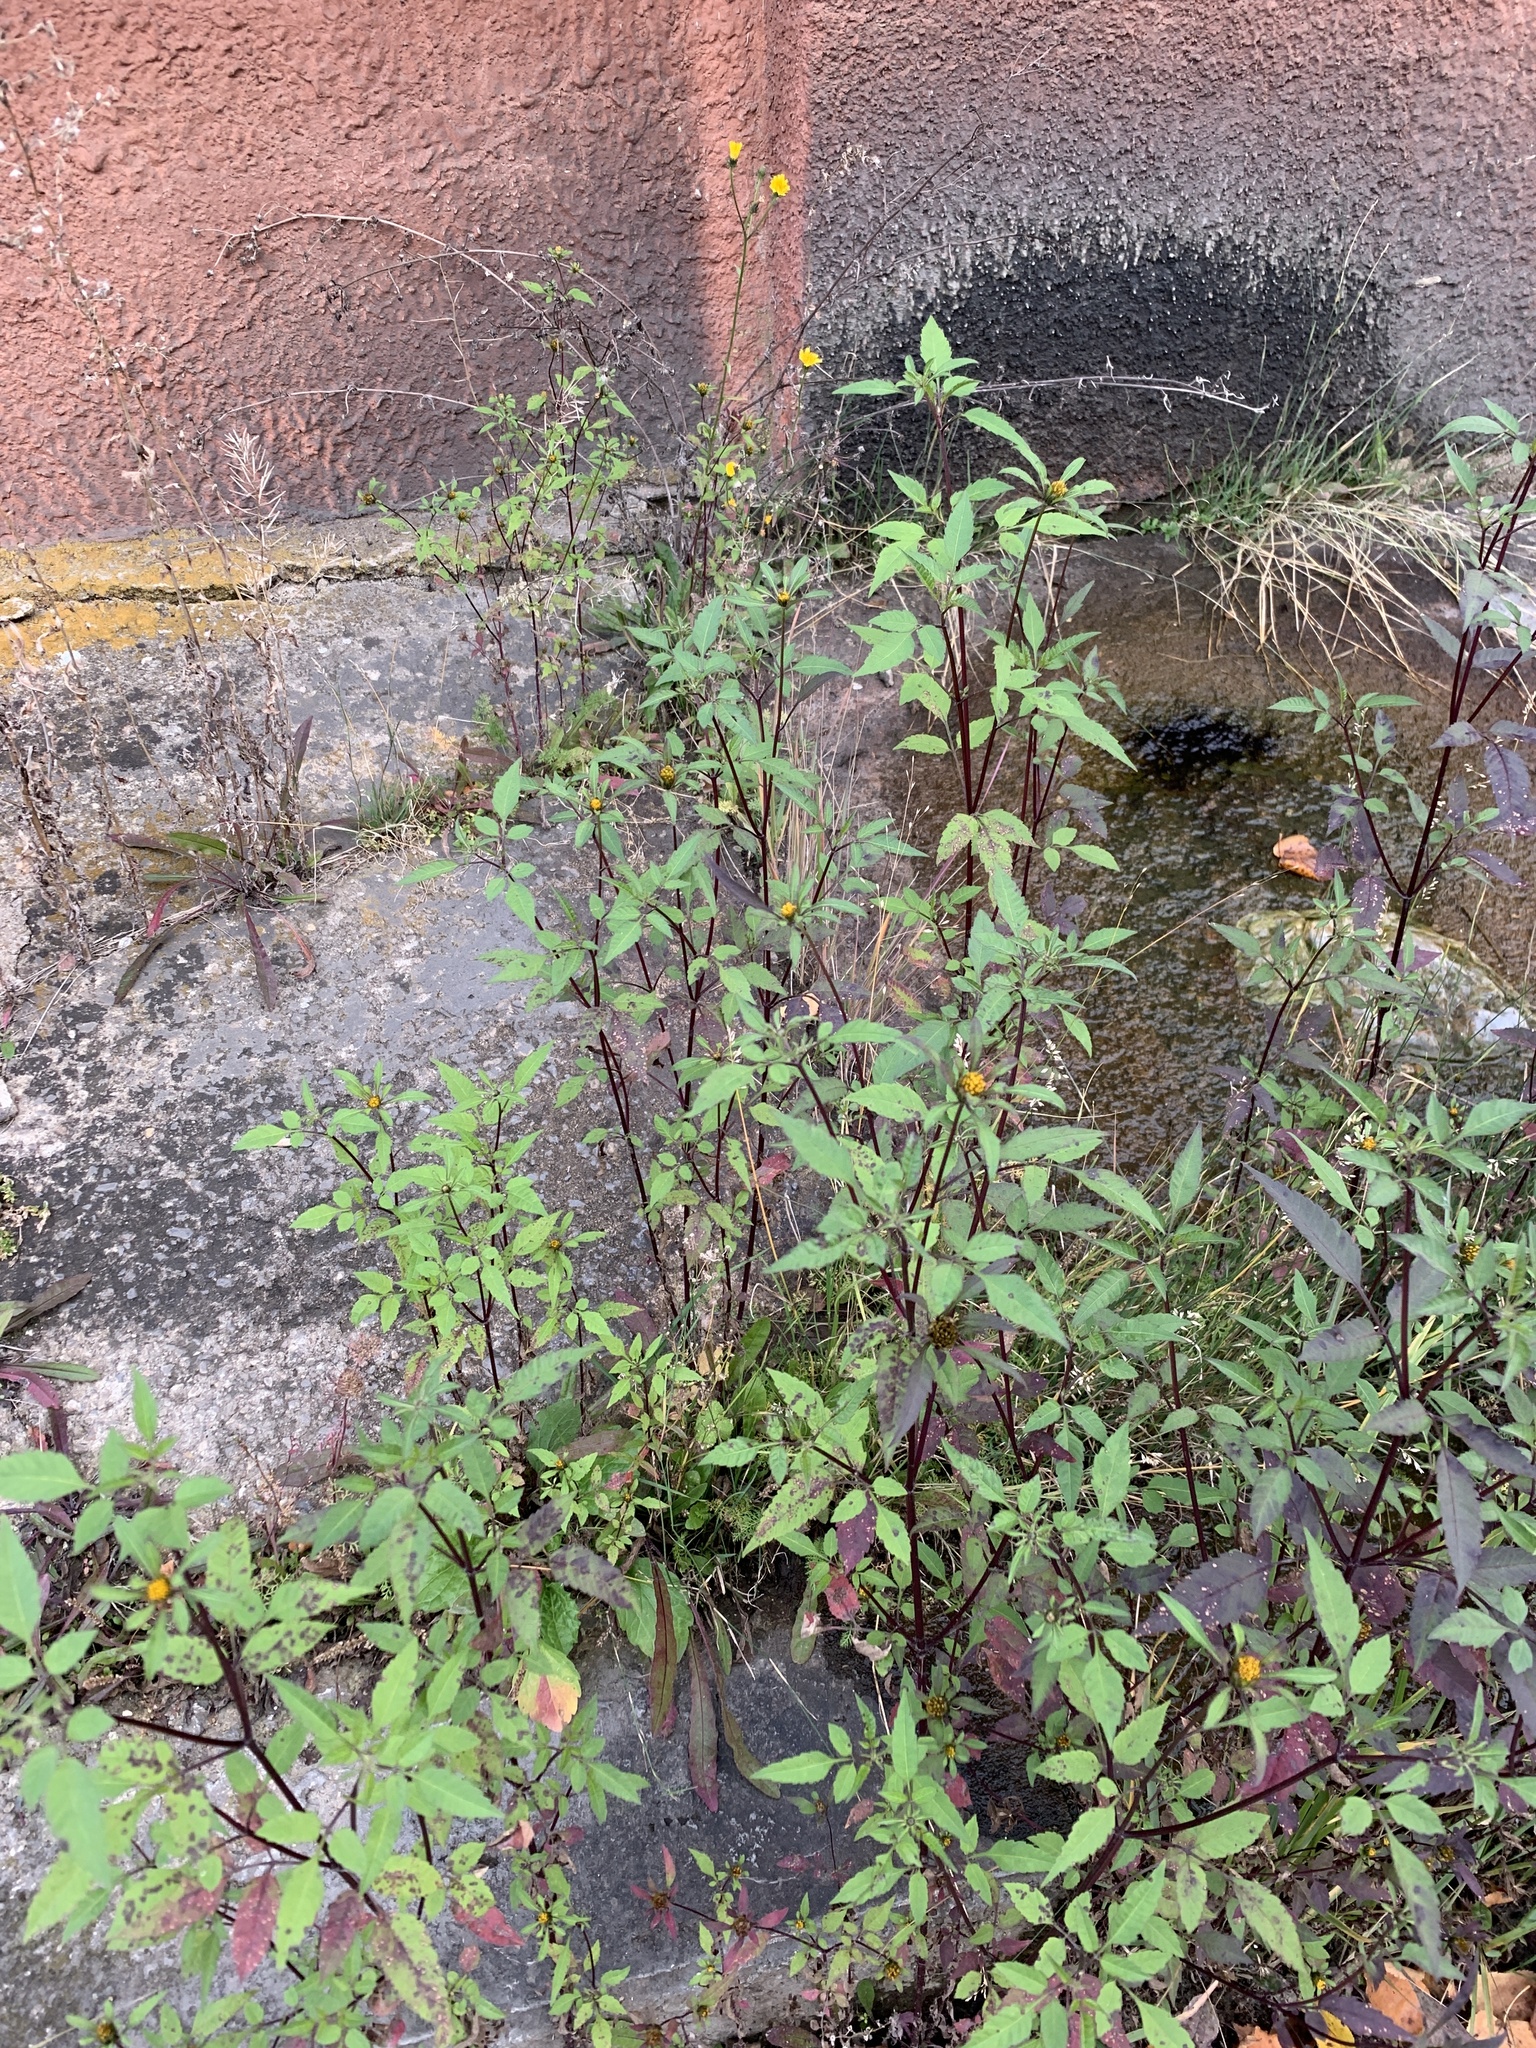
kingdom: Plantae
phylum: Tracheophyta
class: Magnoliopsida
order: Asterales
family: Asteraceae
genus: Bidens
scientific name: Bidens frondosa
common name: Beggarticks
